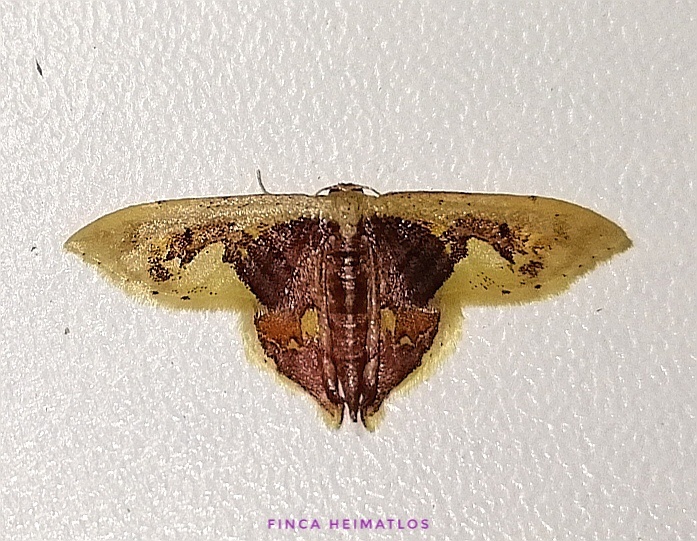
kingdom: Animalia
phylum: Arthropoda
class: Insecta
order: Lepidoptera
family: Geometridae
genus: Idaea
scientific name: Idaea flavicosta
